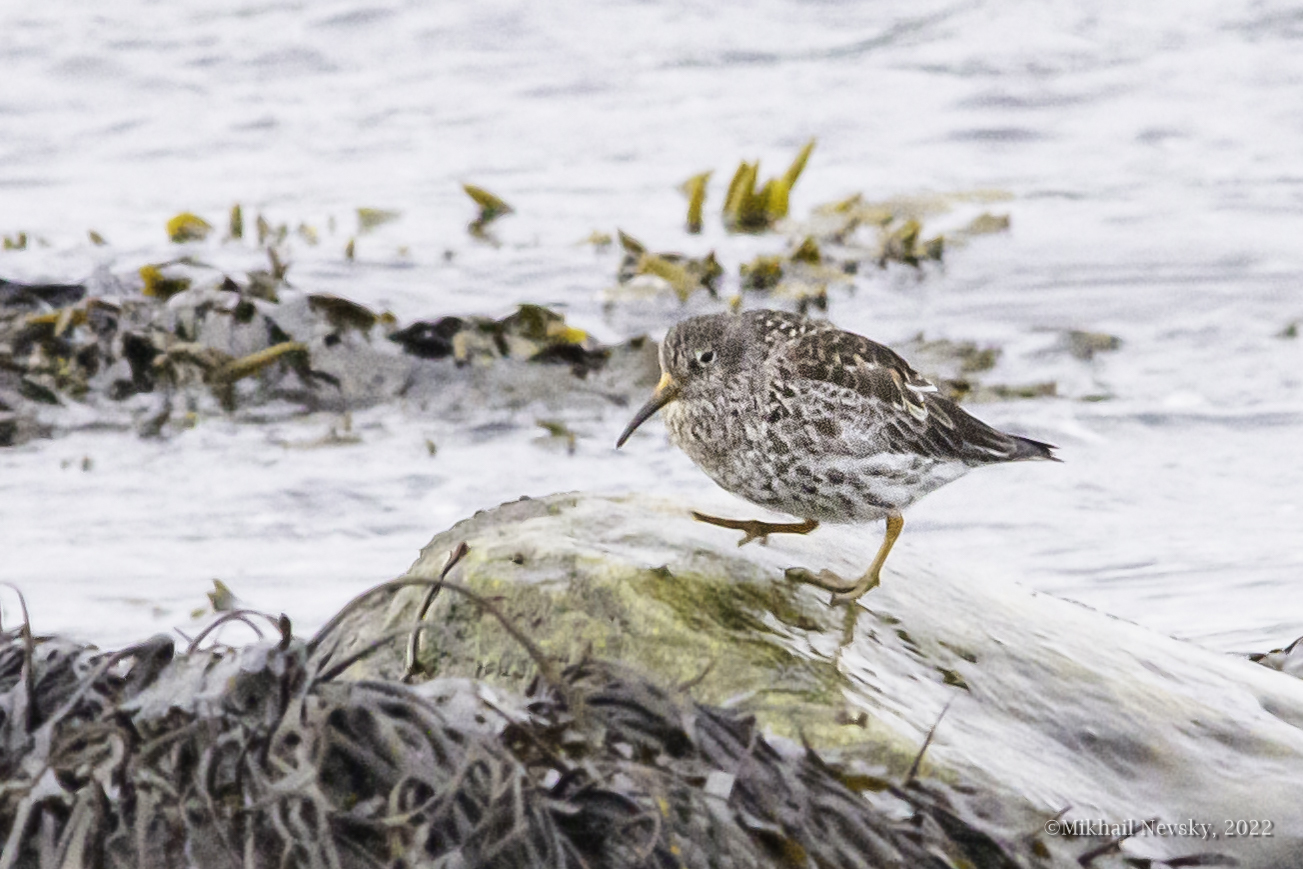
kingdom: Animalia
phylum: Chordata
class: Aves
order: Charadriiformes
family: Scolopacidae
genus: Calidris
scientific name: Calidris maritima
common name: Purple sandpiper
